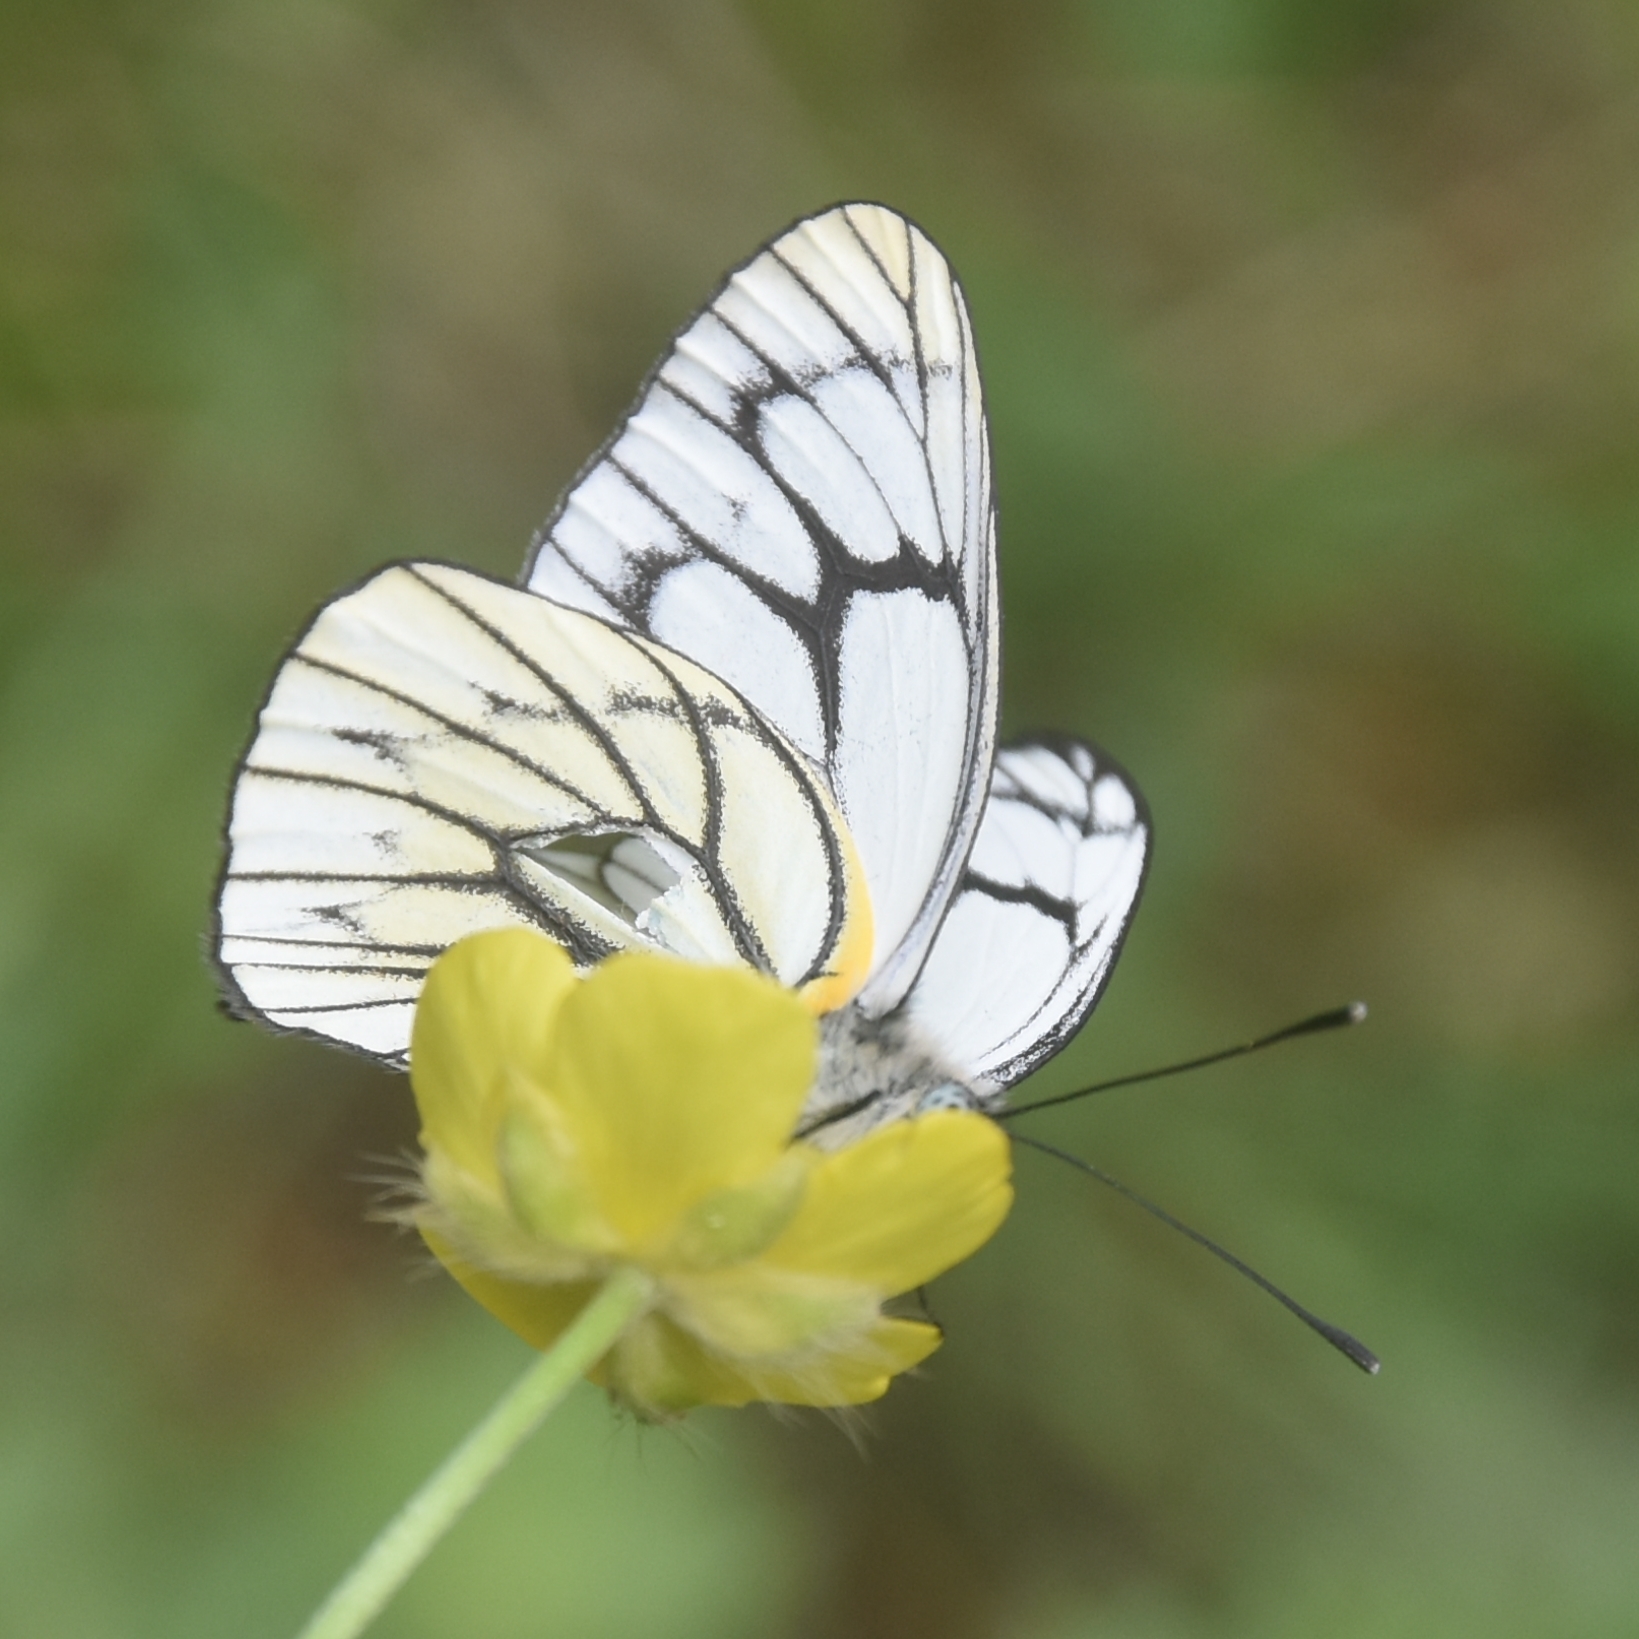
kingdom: Animalia
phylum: Arthropoda
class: Insecta
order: Lepidoptera
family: Pieridae
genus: Aporia
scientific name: Aporia leucodice
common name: Himalayan blackvein
